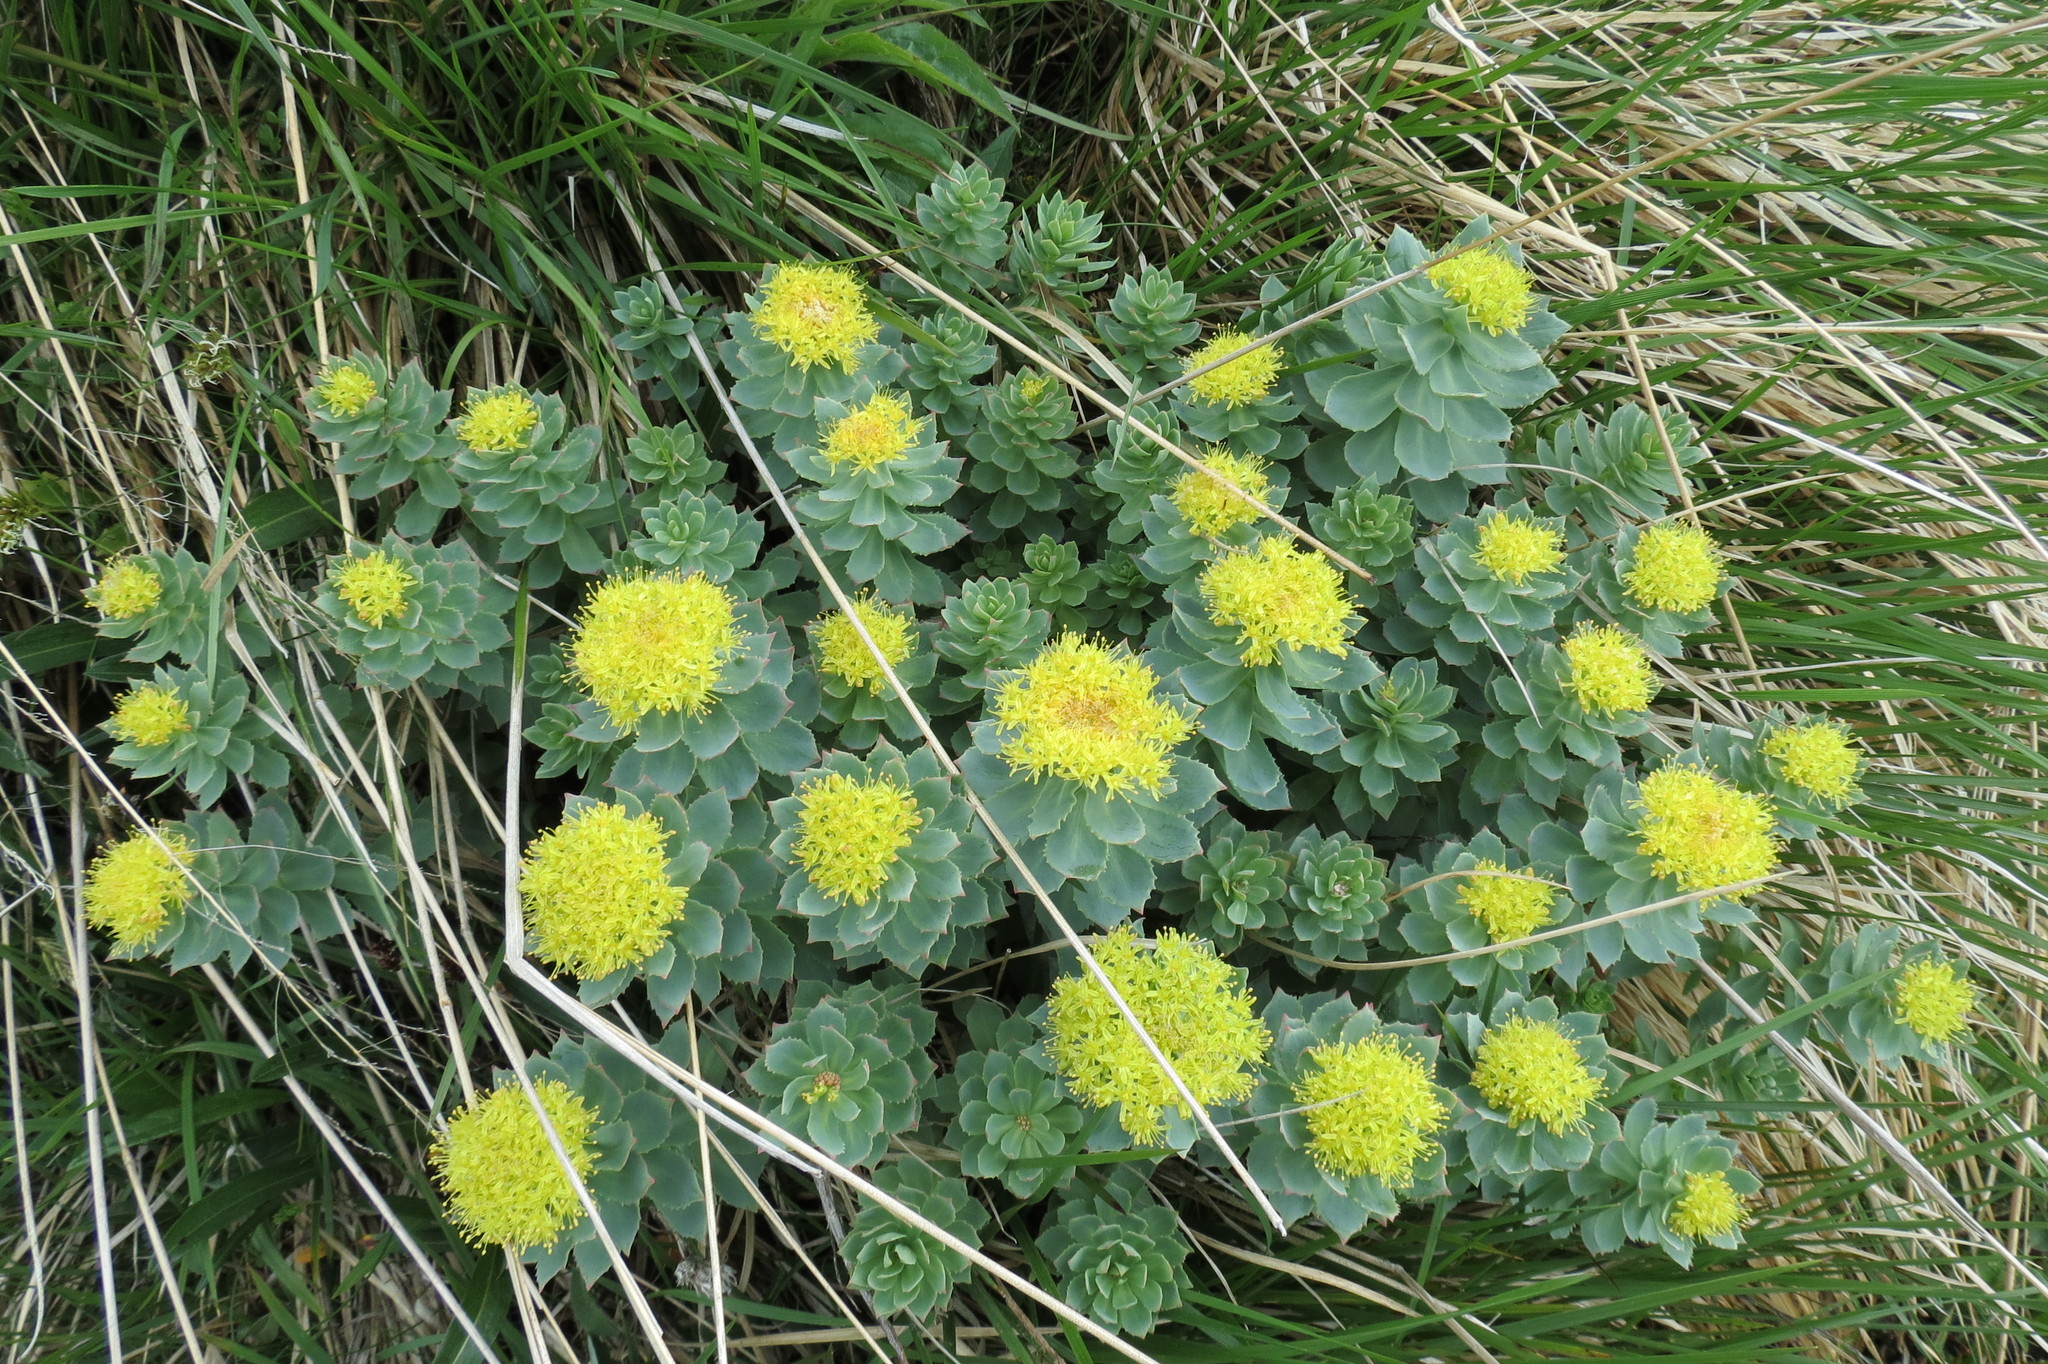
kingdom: Plantae
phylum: Tracheophyta
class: Magnoliopsida
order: Saxifragales
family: Crassulaceae
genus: Rhodiola
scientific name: Rhodiola rosea
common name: Roseroot
